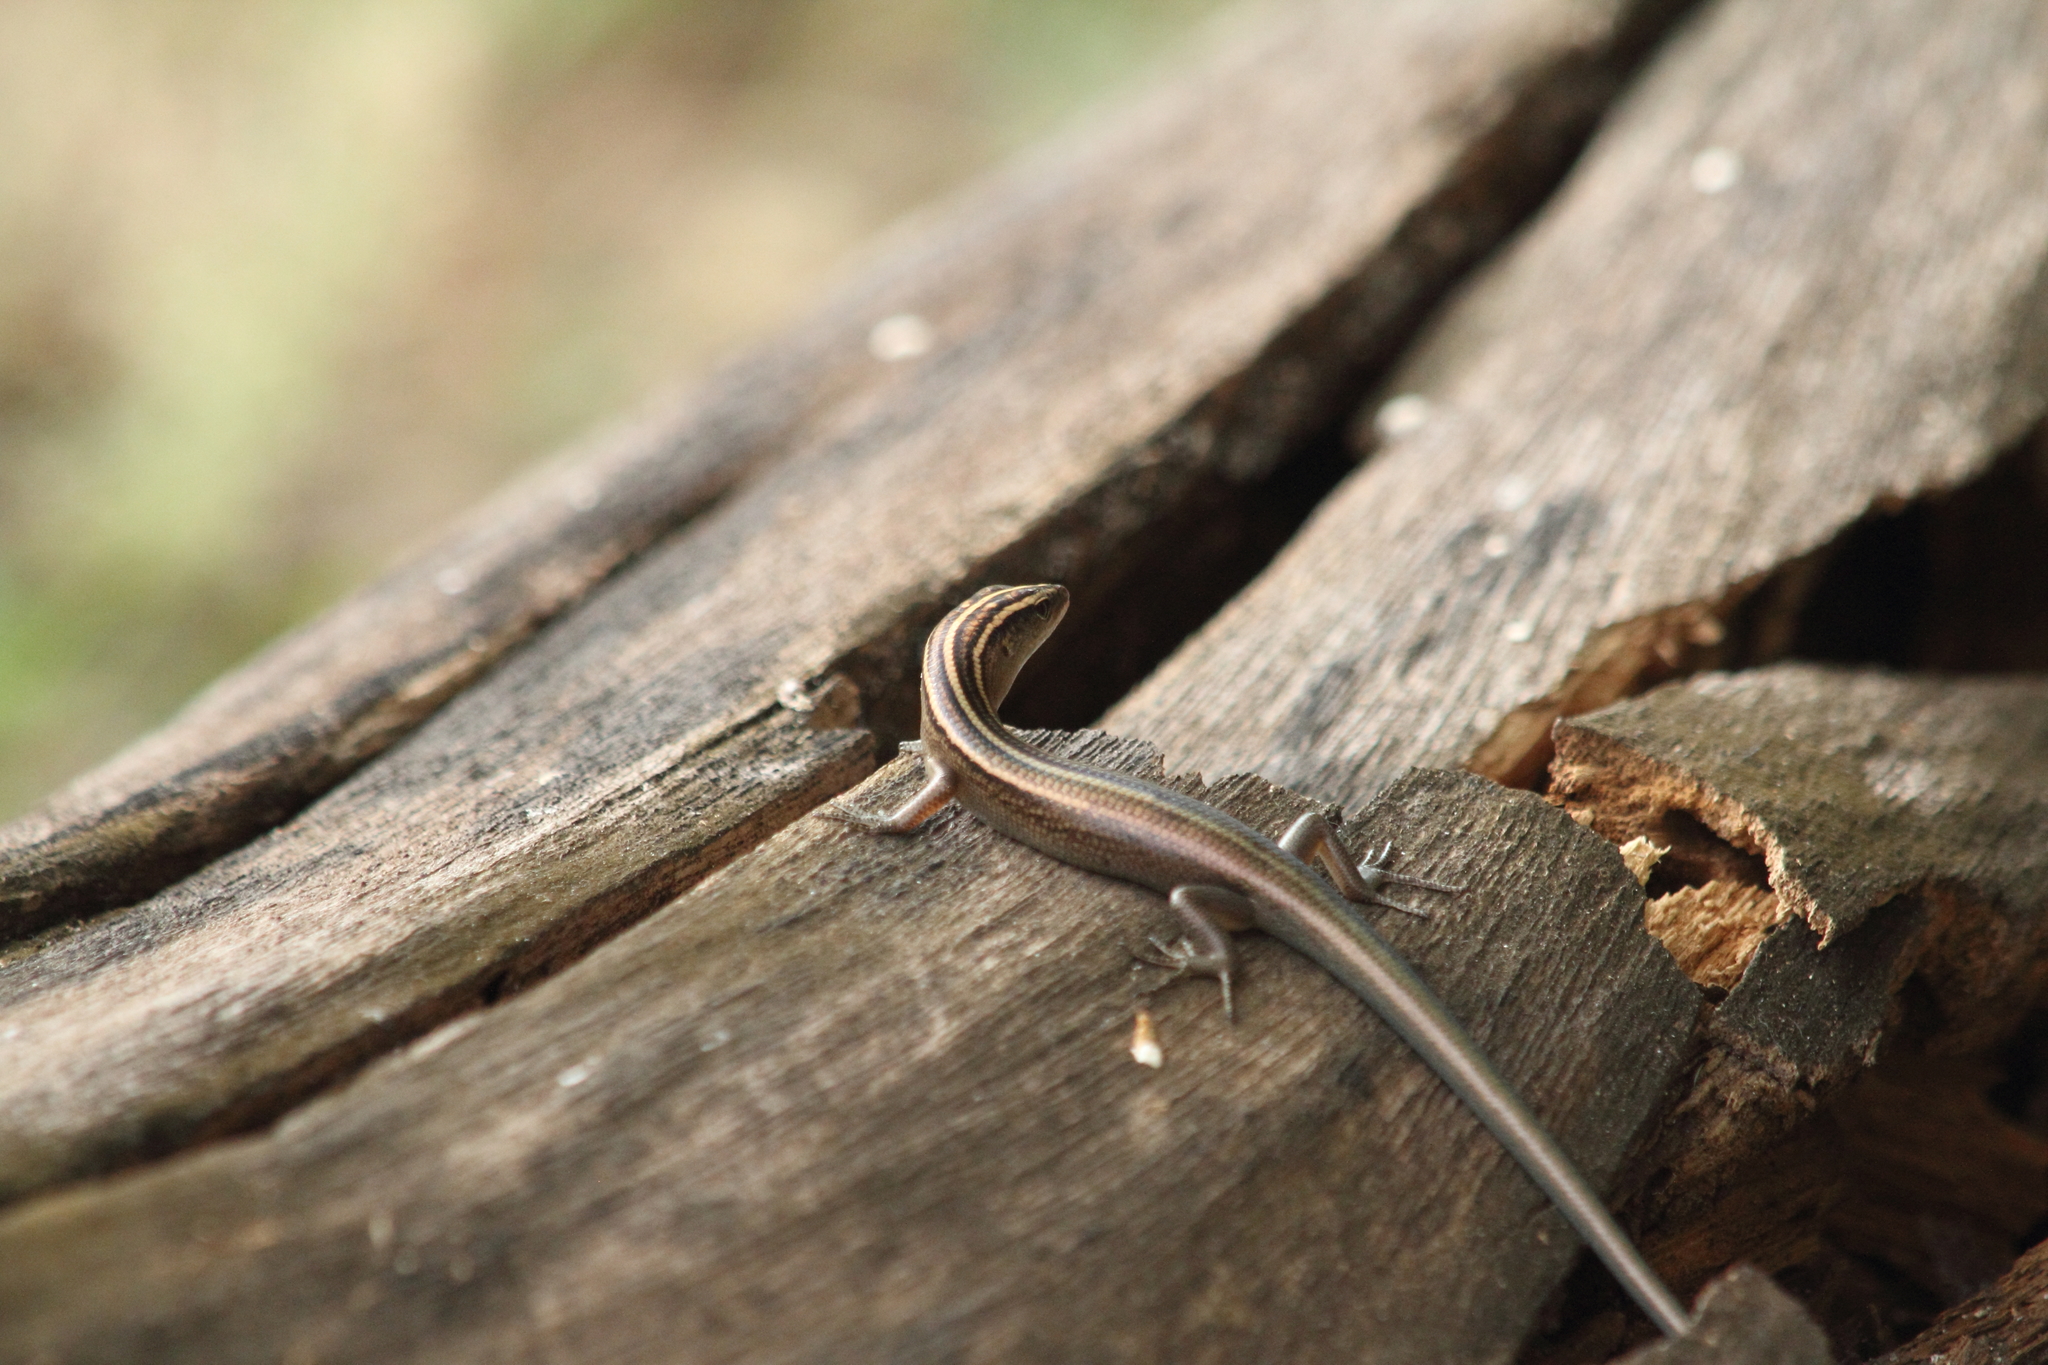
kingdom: Animalia
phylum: Chordata
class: Squamata
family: Scincidae
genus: Emoia
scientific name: Emoia cyanura
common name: Copper-tailed skink
